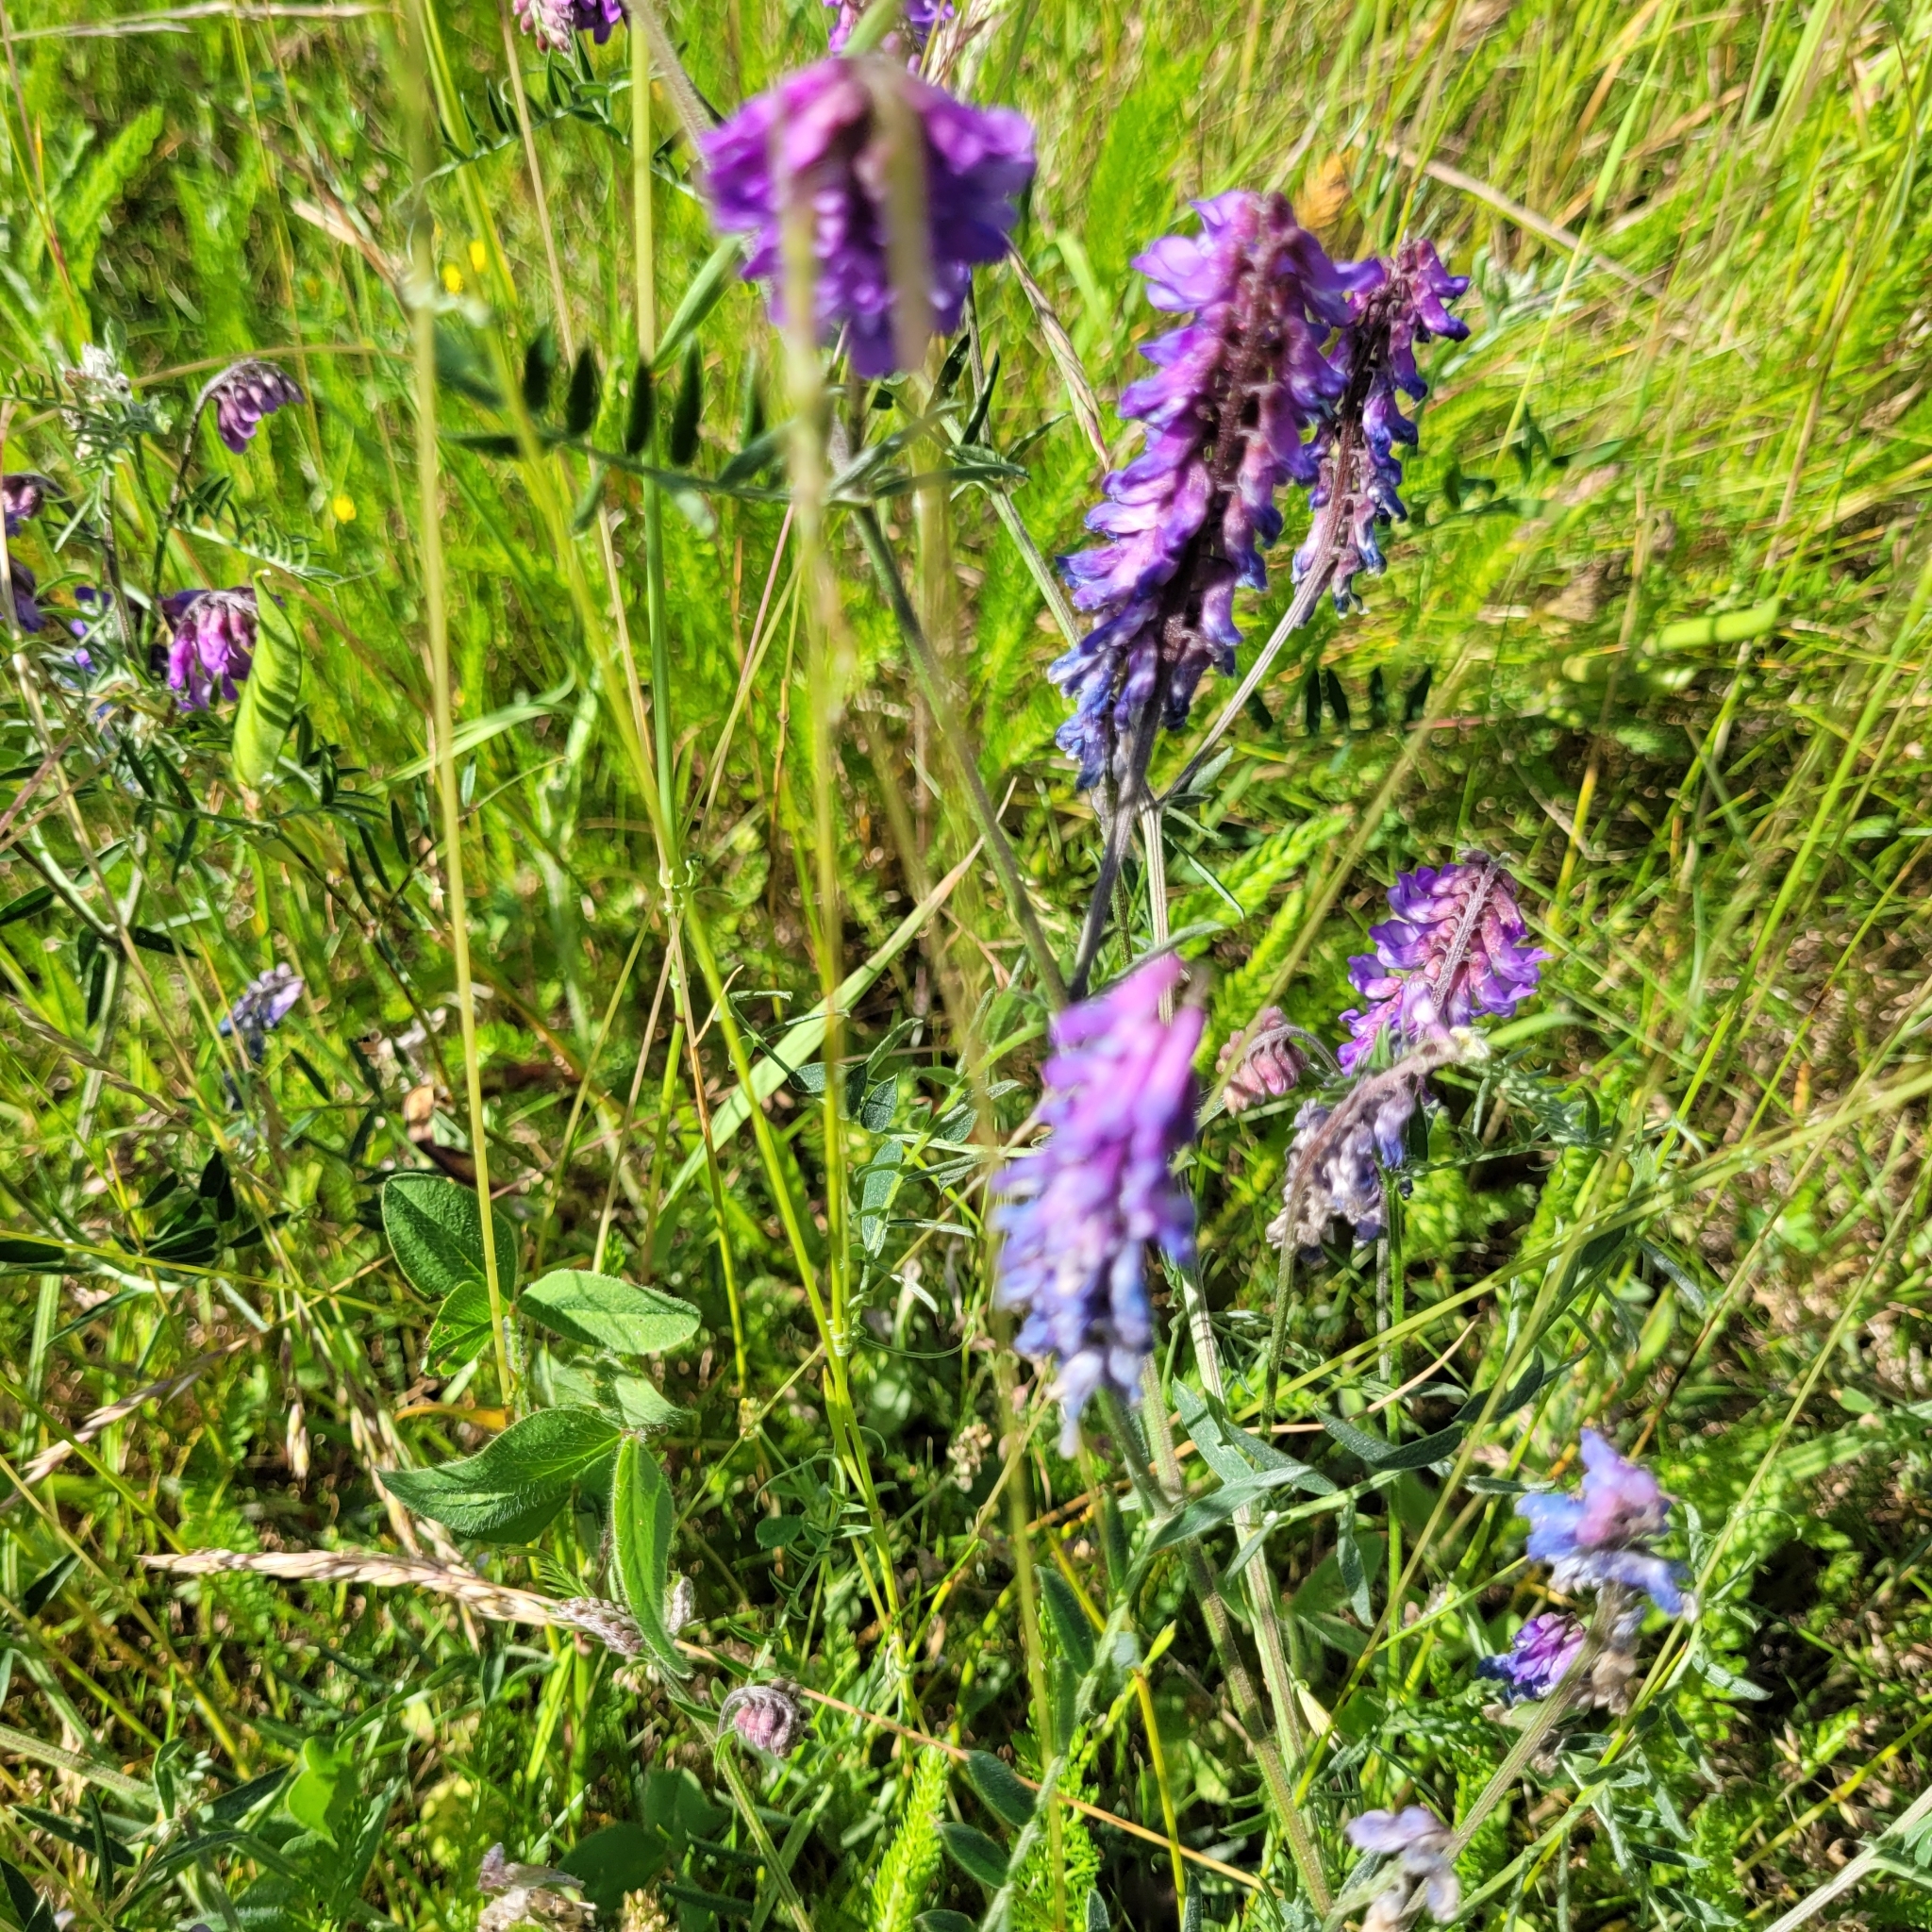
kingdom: Plantae
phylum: Tracheophyta
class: Magnoliopsida
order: Fabales
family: Fabaceae
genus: Vicia
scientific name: Vicia cracca
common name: Bird vetch
